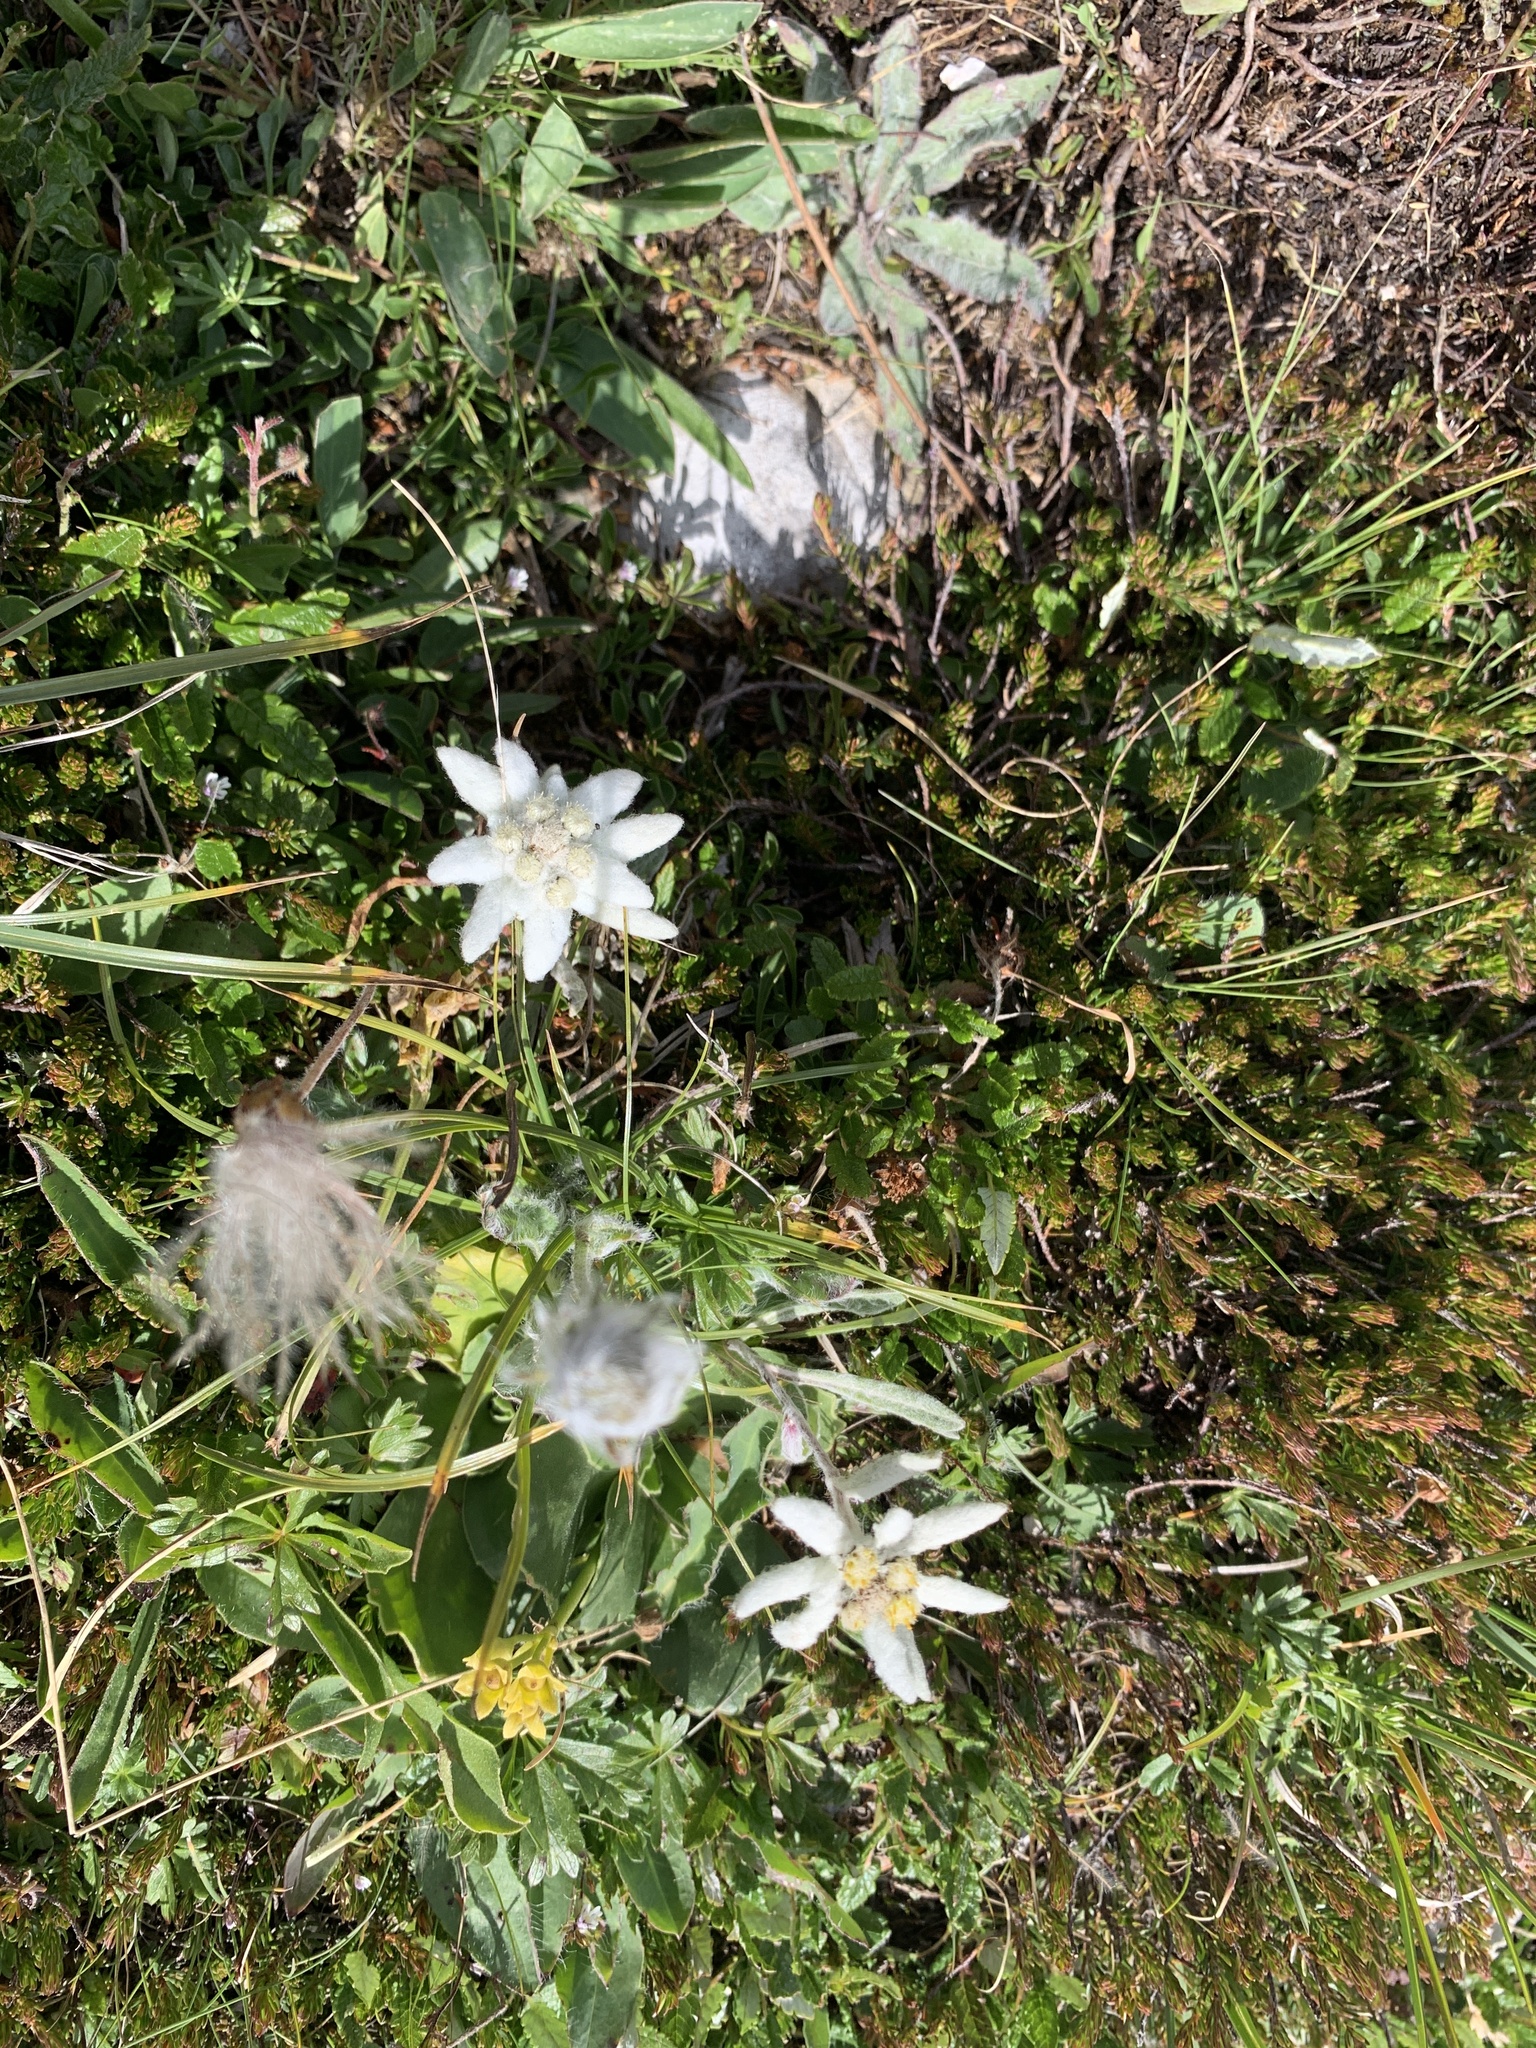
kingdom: Plantae
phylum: Tracheophyta
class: Magnoliopsida
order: Asterales
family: Asteraceae
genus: Leontopodium
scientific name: Leontopodium nivale
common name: Edelweiss
